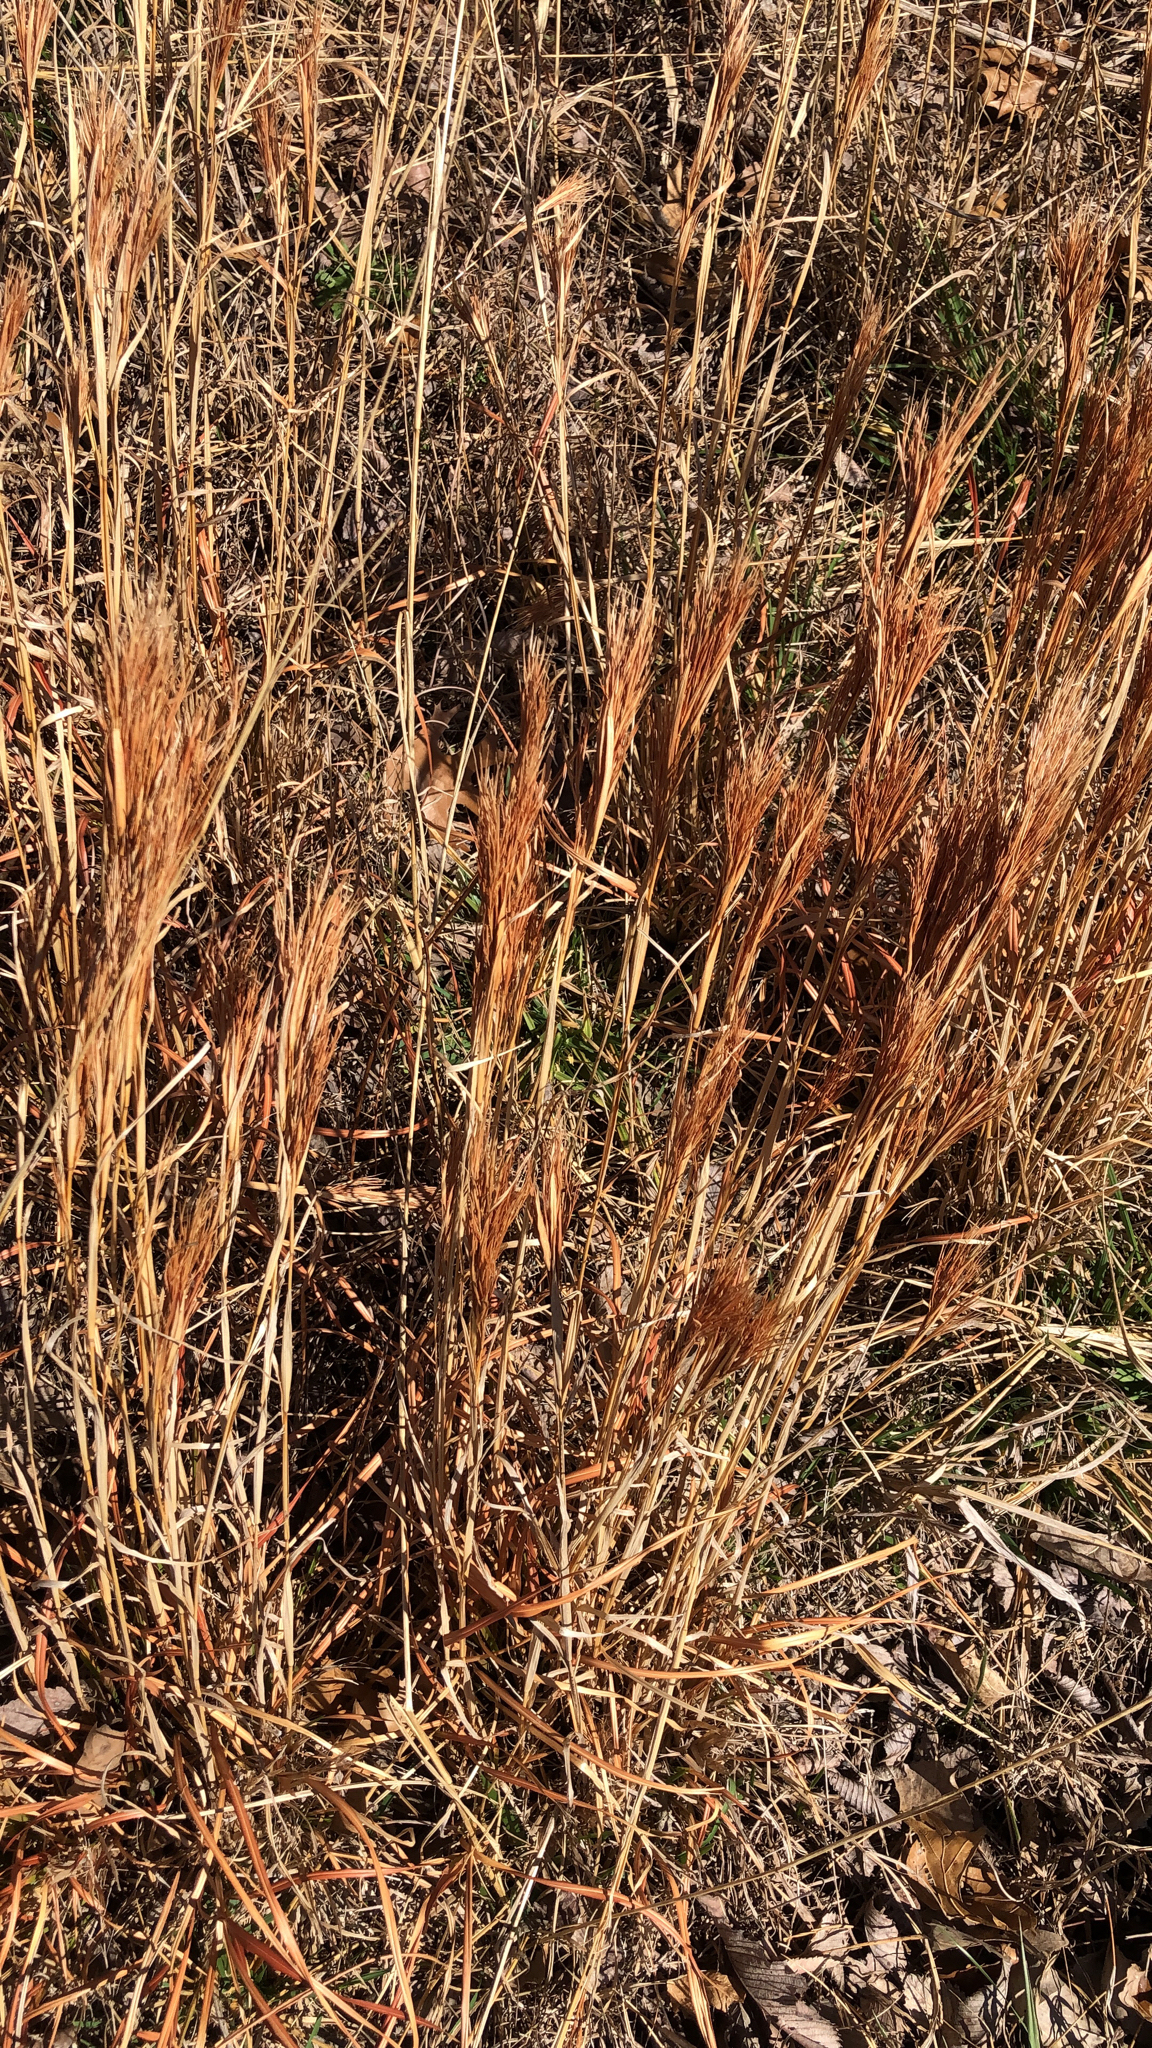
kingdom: Plantae
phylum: Tracheophyta
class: Liliopsida
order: Poales
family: Poaceae
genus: Andropogon
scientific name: Andropogon tenuispatheus
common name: Bushy bluestem
